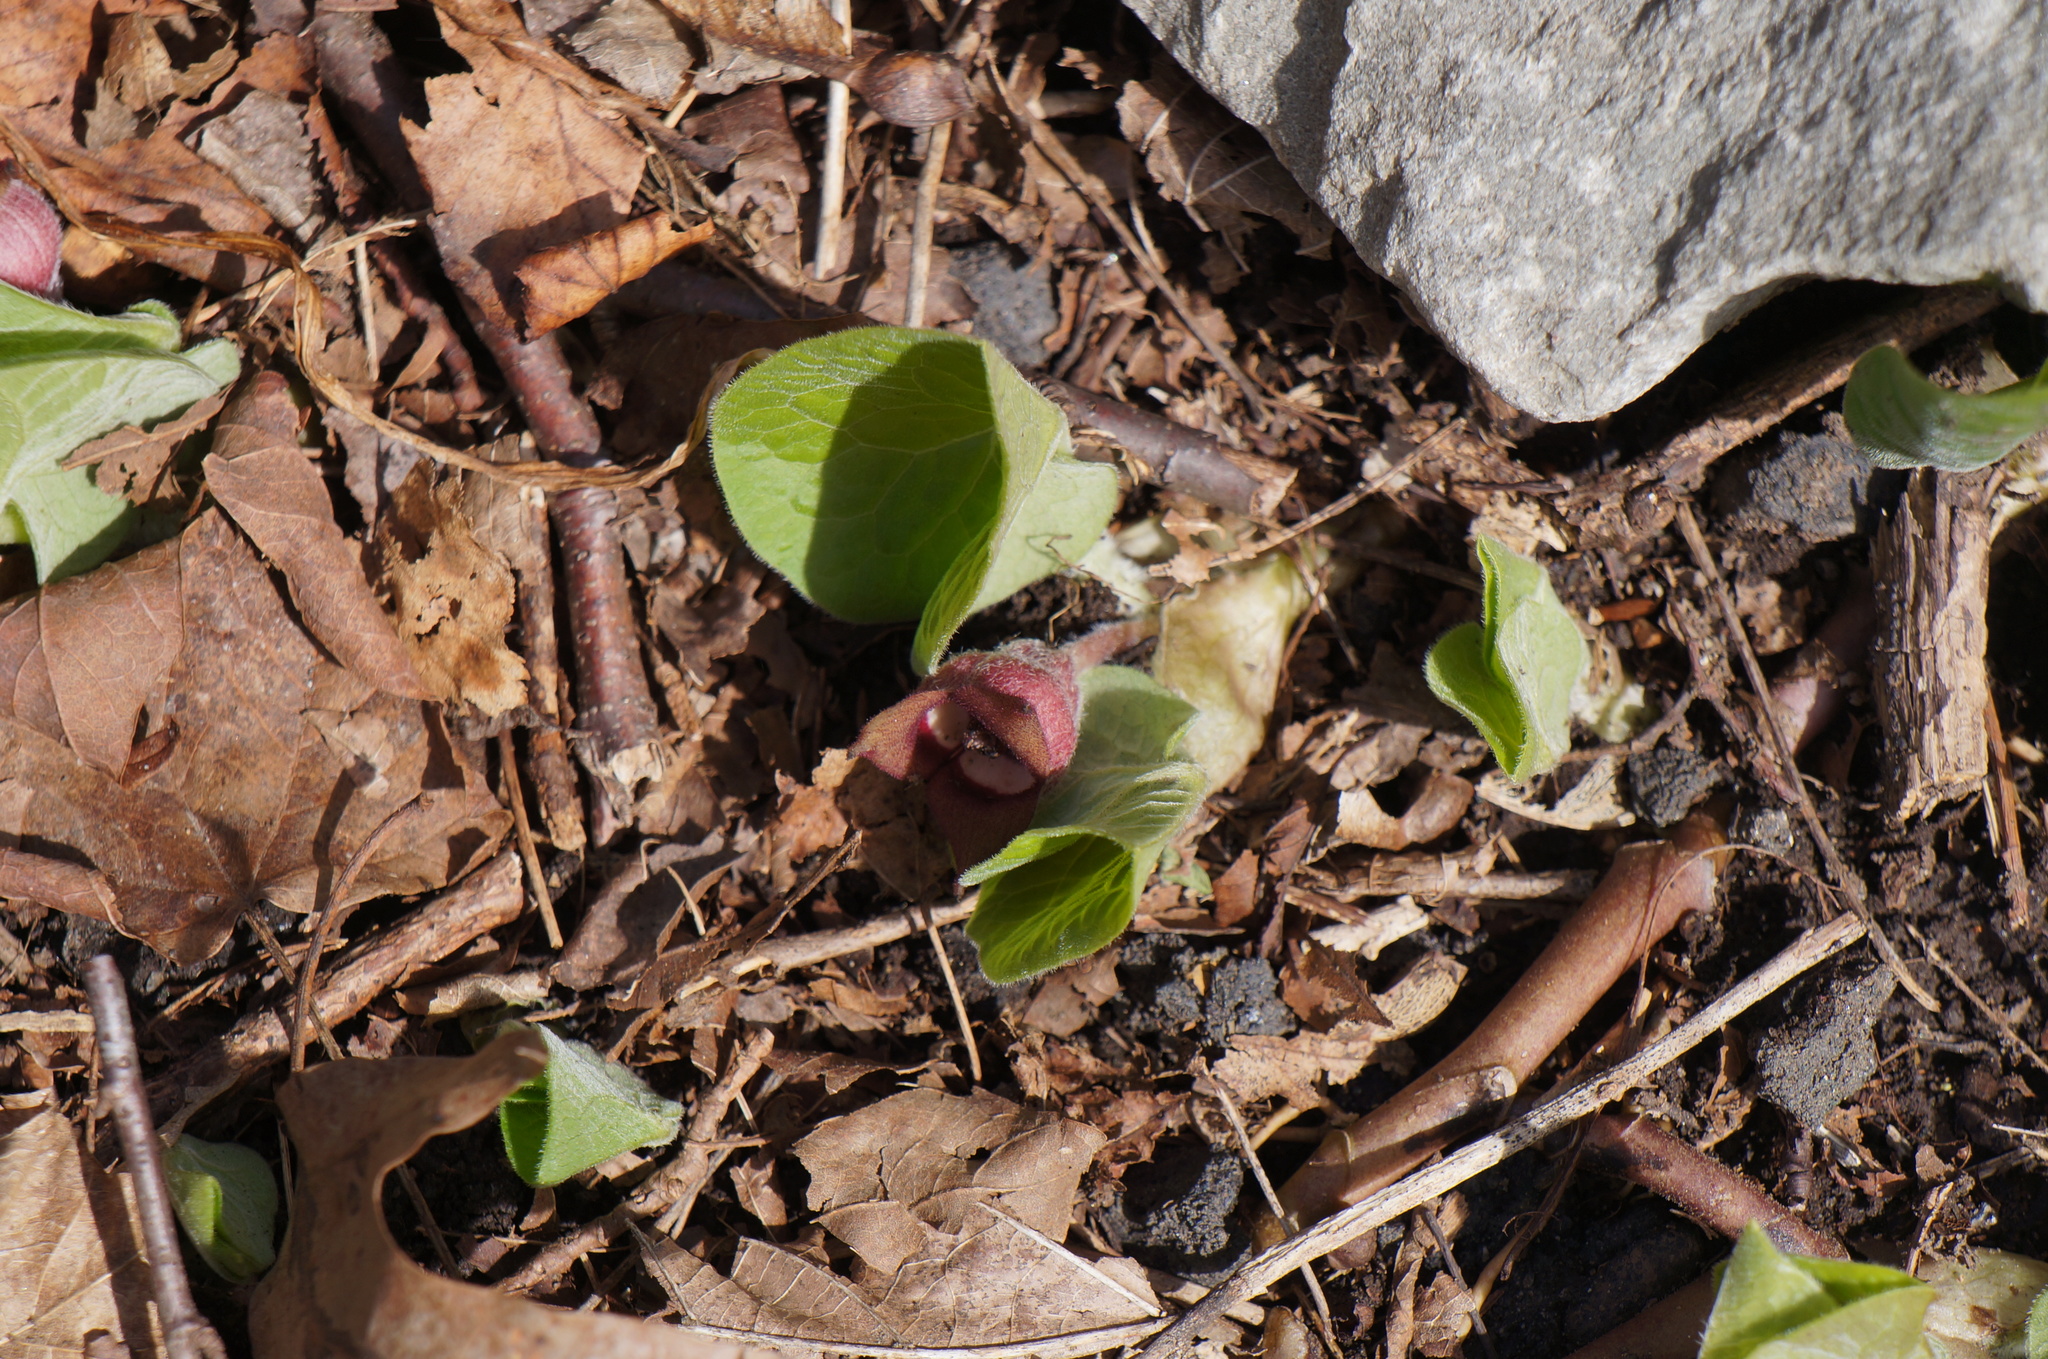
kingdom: Plantae
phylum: Tracheophyta
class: Magnoliopsida
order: Piperales
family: Aristolochiaceae
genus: Asarum
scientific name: Asarum canadense
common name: Wild ginger
